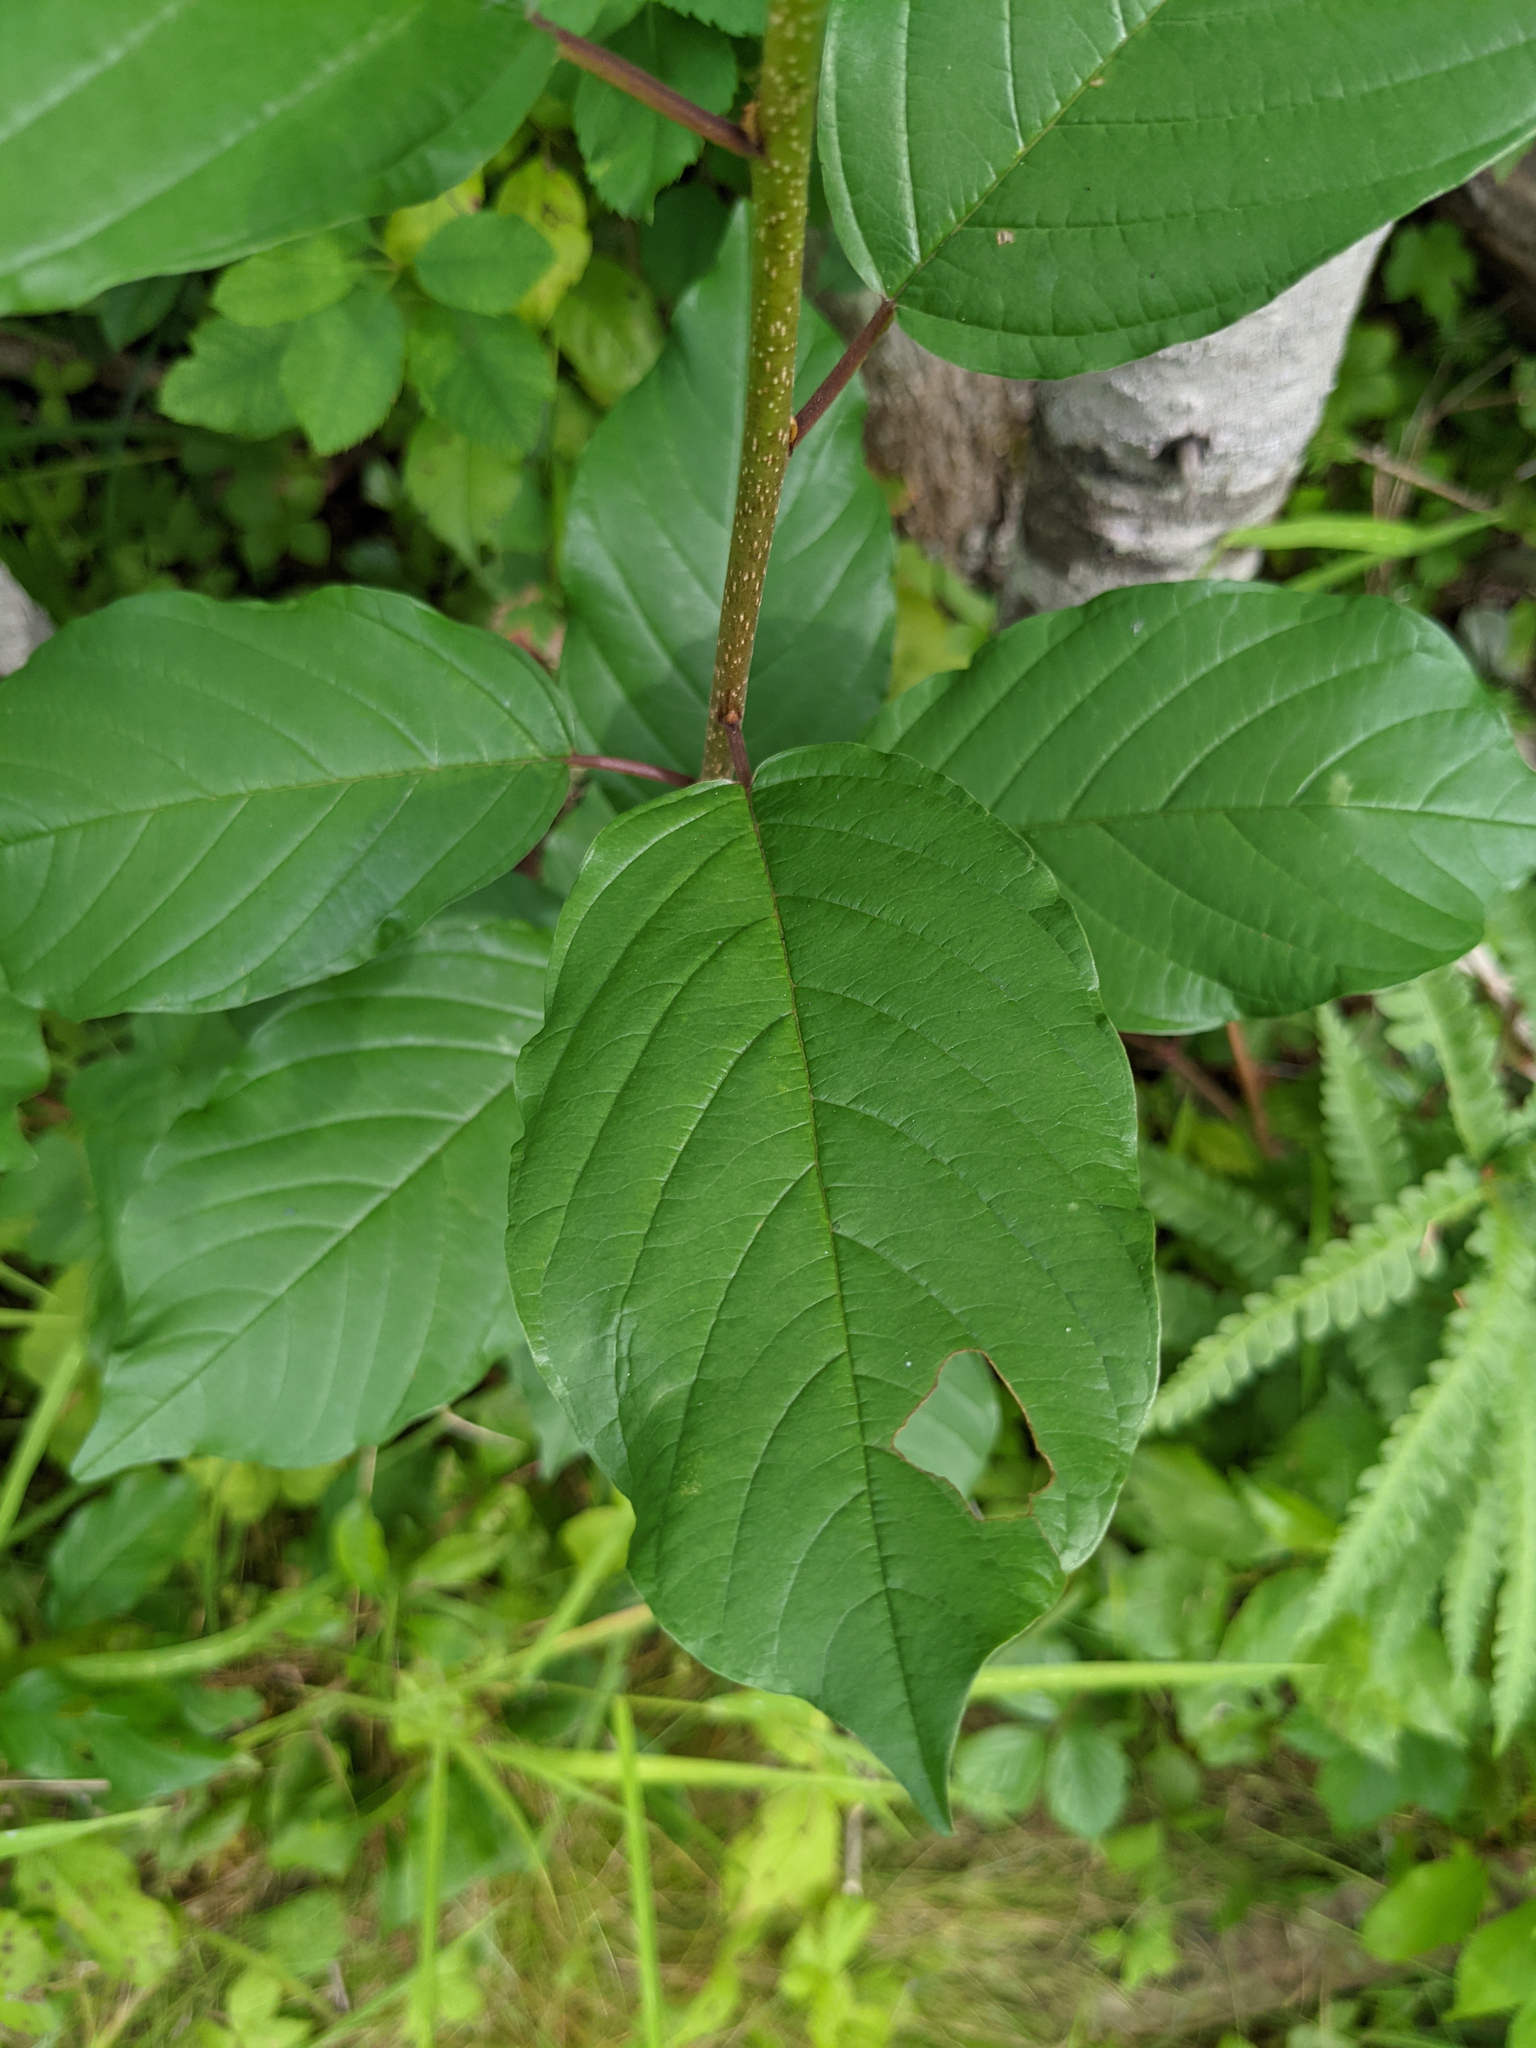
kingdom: Plantae
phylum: Tracheophyta
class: Magnoliopsida
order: Rosales
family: Rhamnaceae
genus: Frangula
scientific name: Frangula alnus
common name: Alder buckthorn
